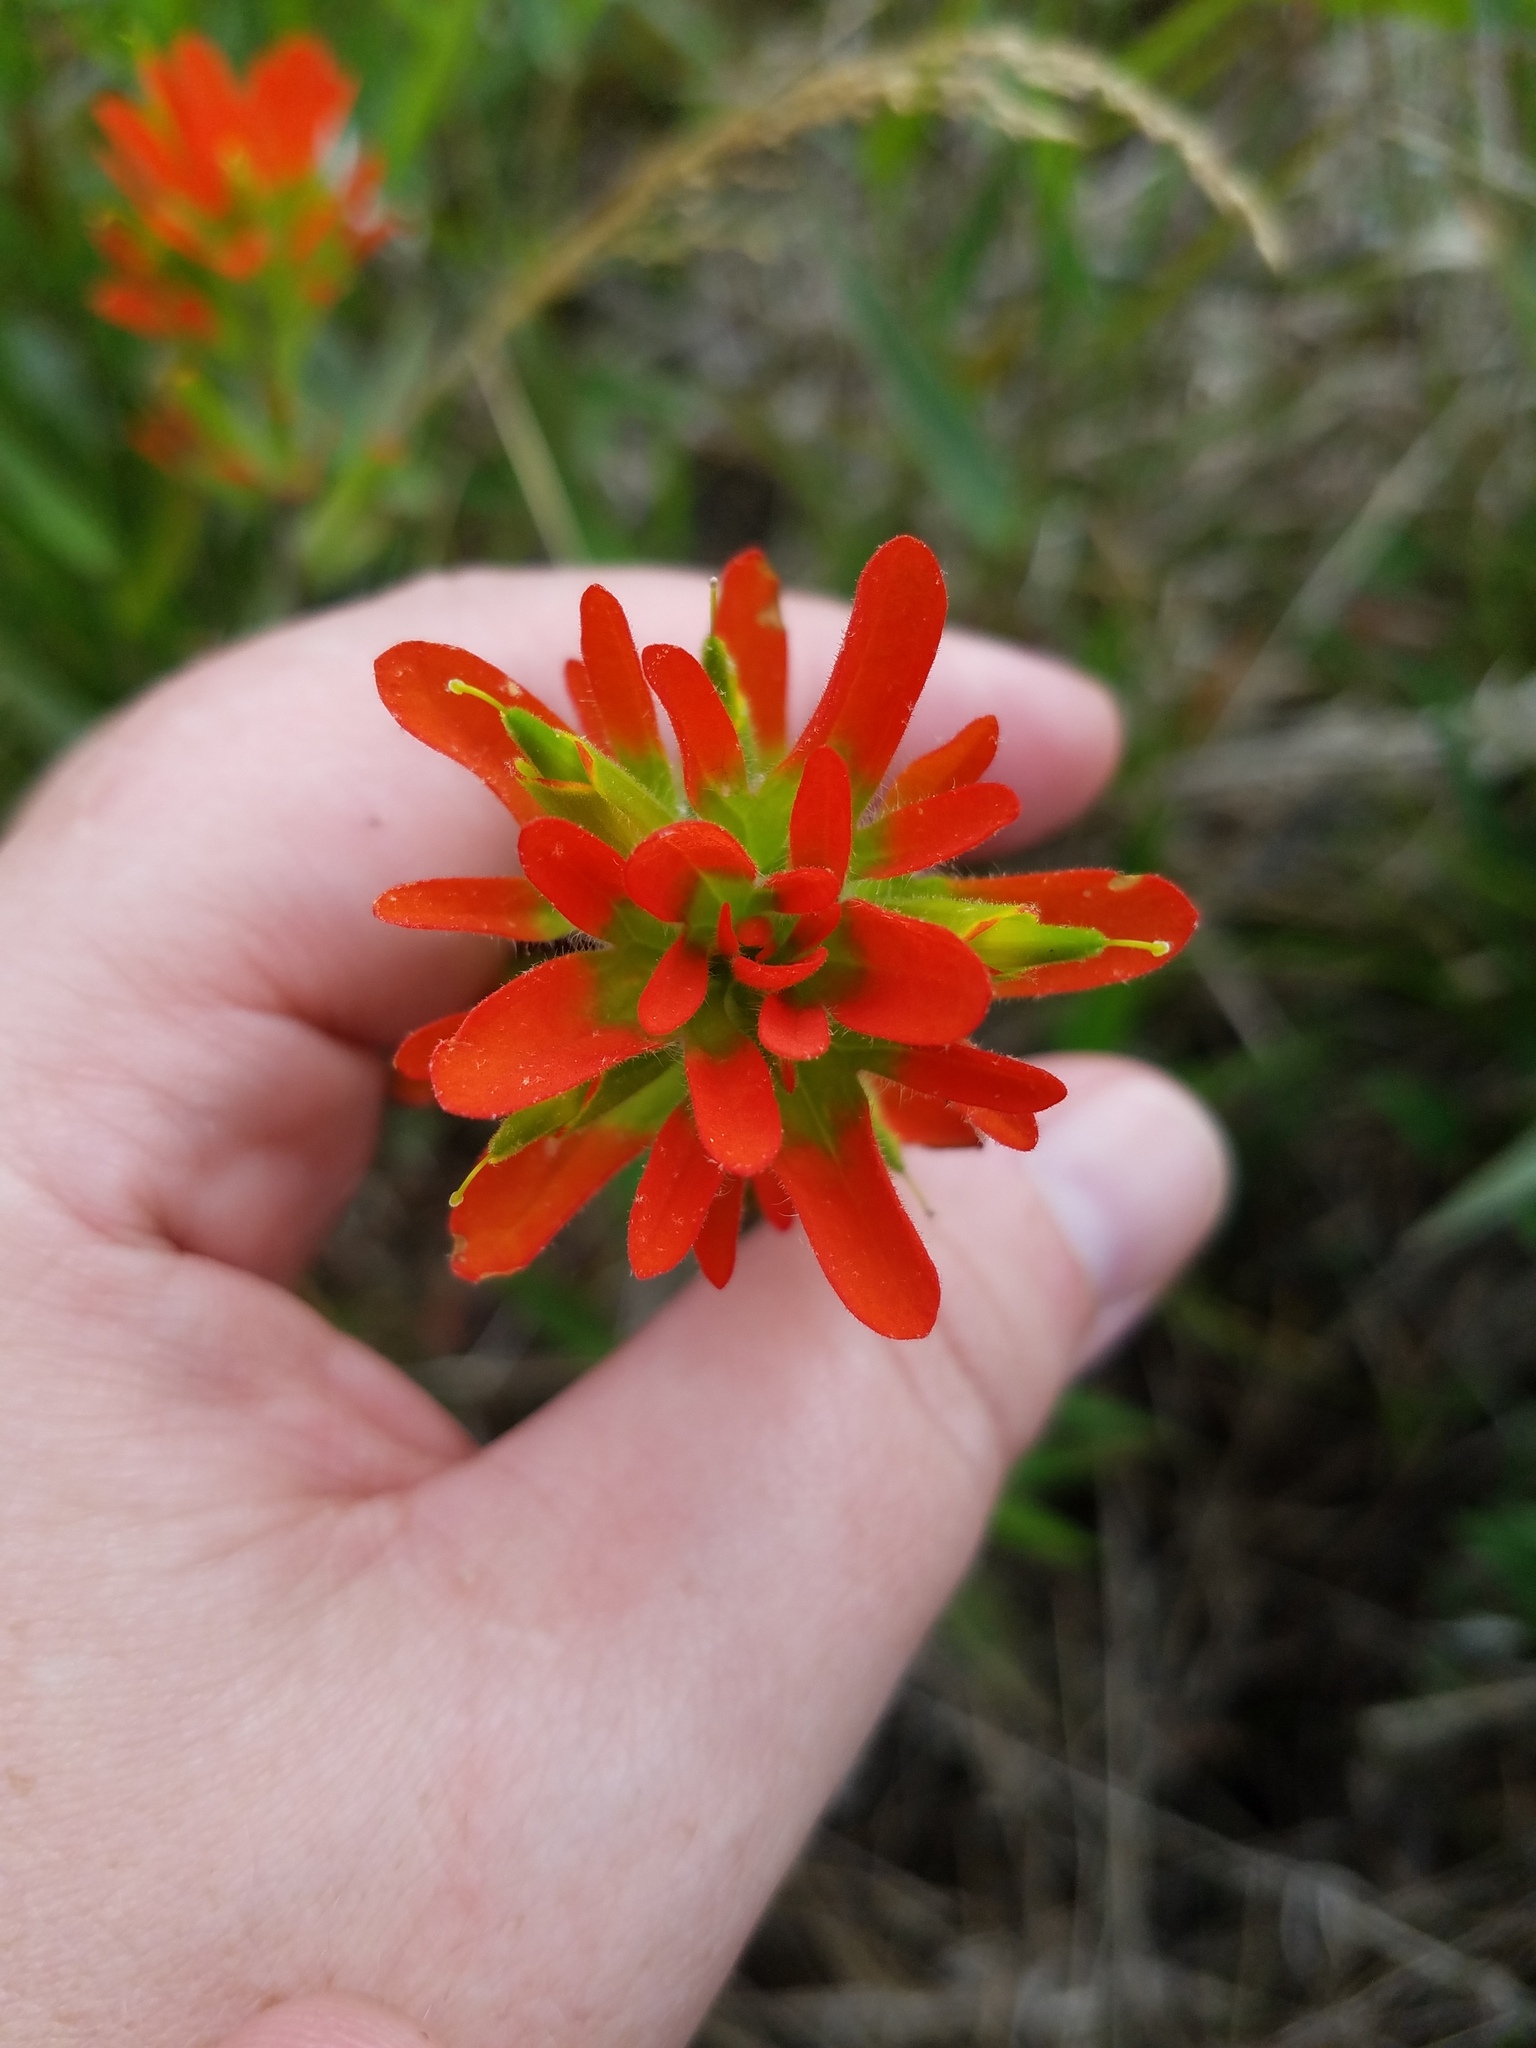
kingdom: Plantae
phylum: Tracheophyta
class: Magnoliopsida
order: Lamiales
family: Orobanchaceae
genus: Castilleja
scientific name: Castilleja coccinea
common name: Scarlet paintbrush
